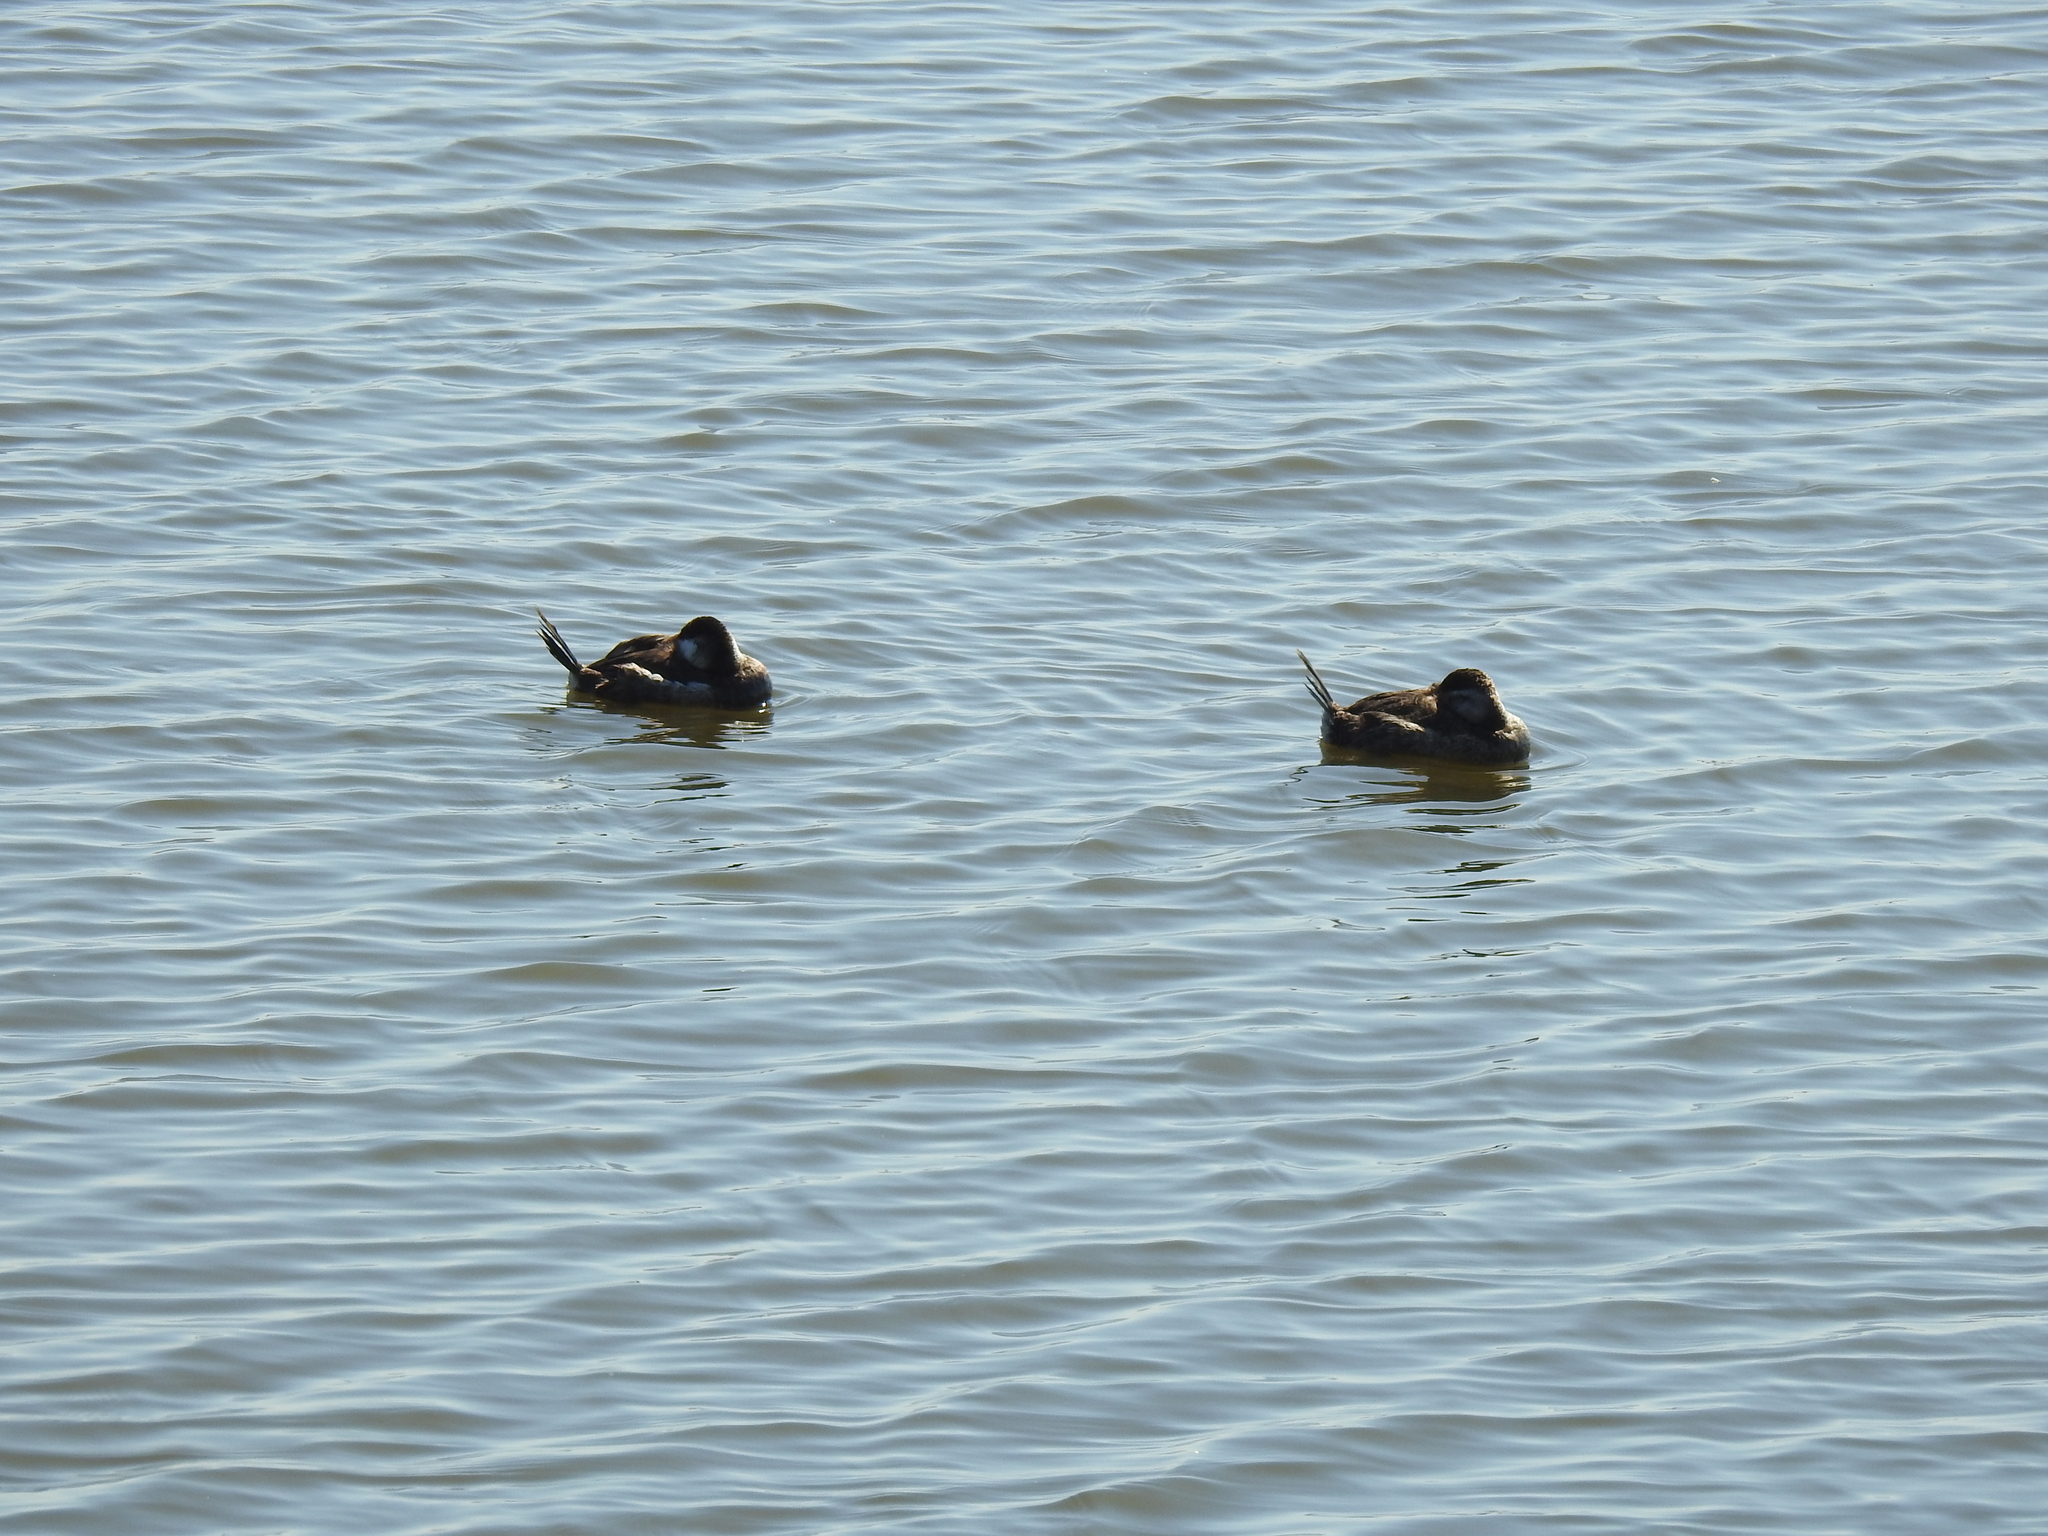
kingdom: Animalia
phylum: Chordata
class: Aves
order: Anseriformes
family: Anatidae
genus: Oxyura
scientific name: Oxyura jamaicensis
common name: Ruddy duck
